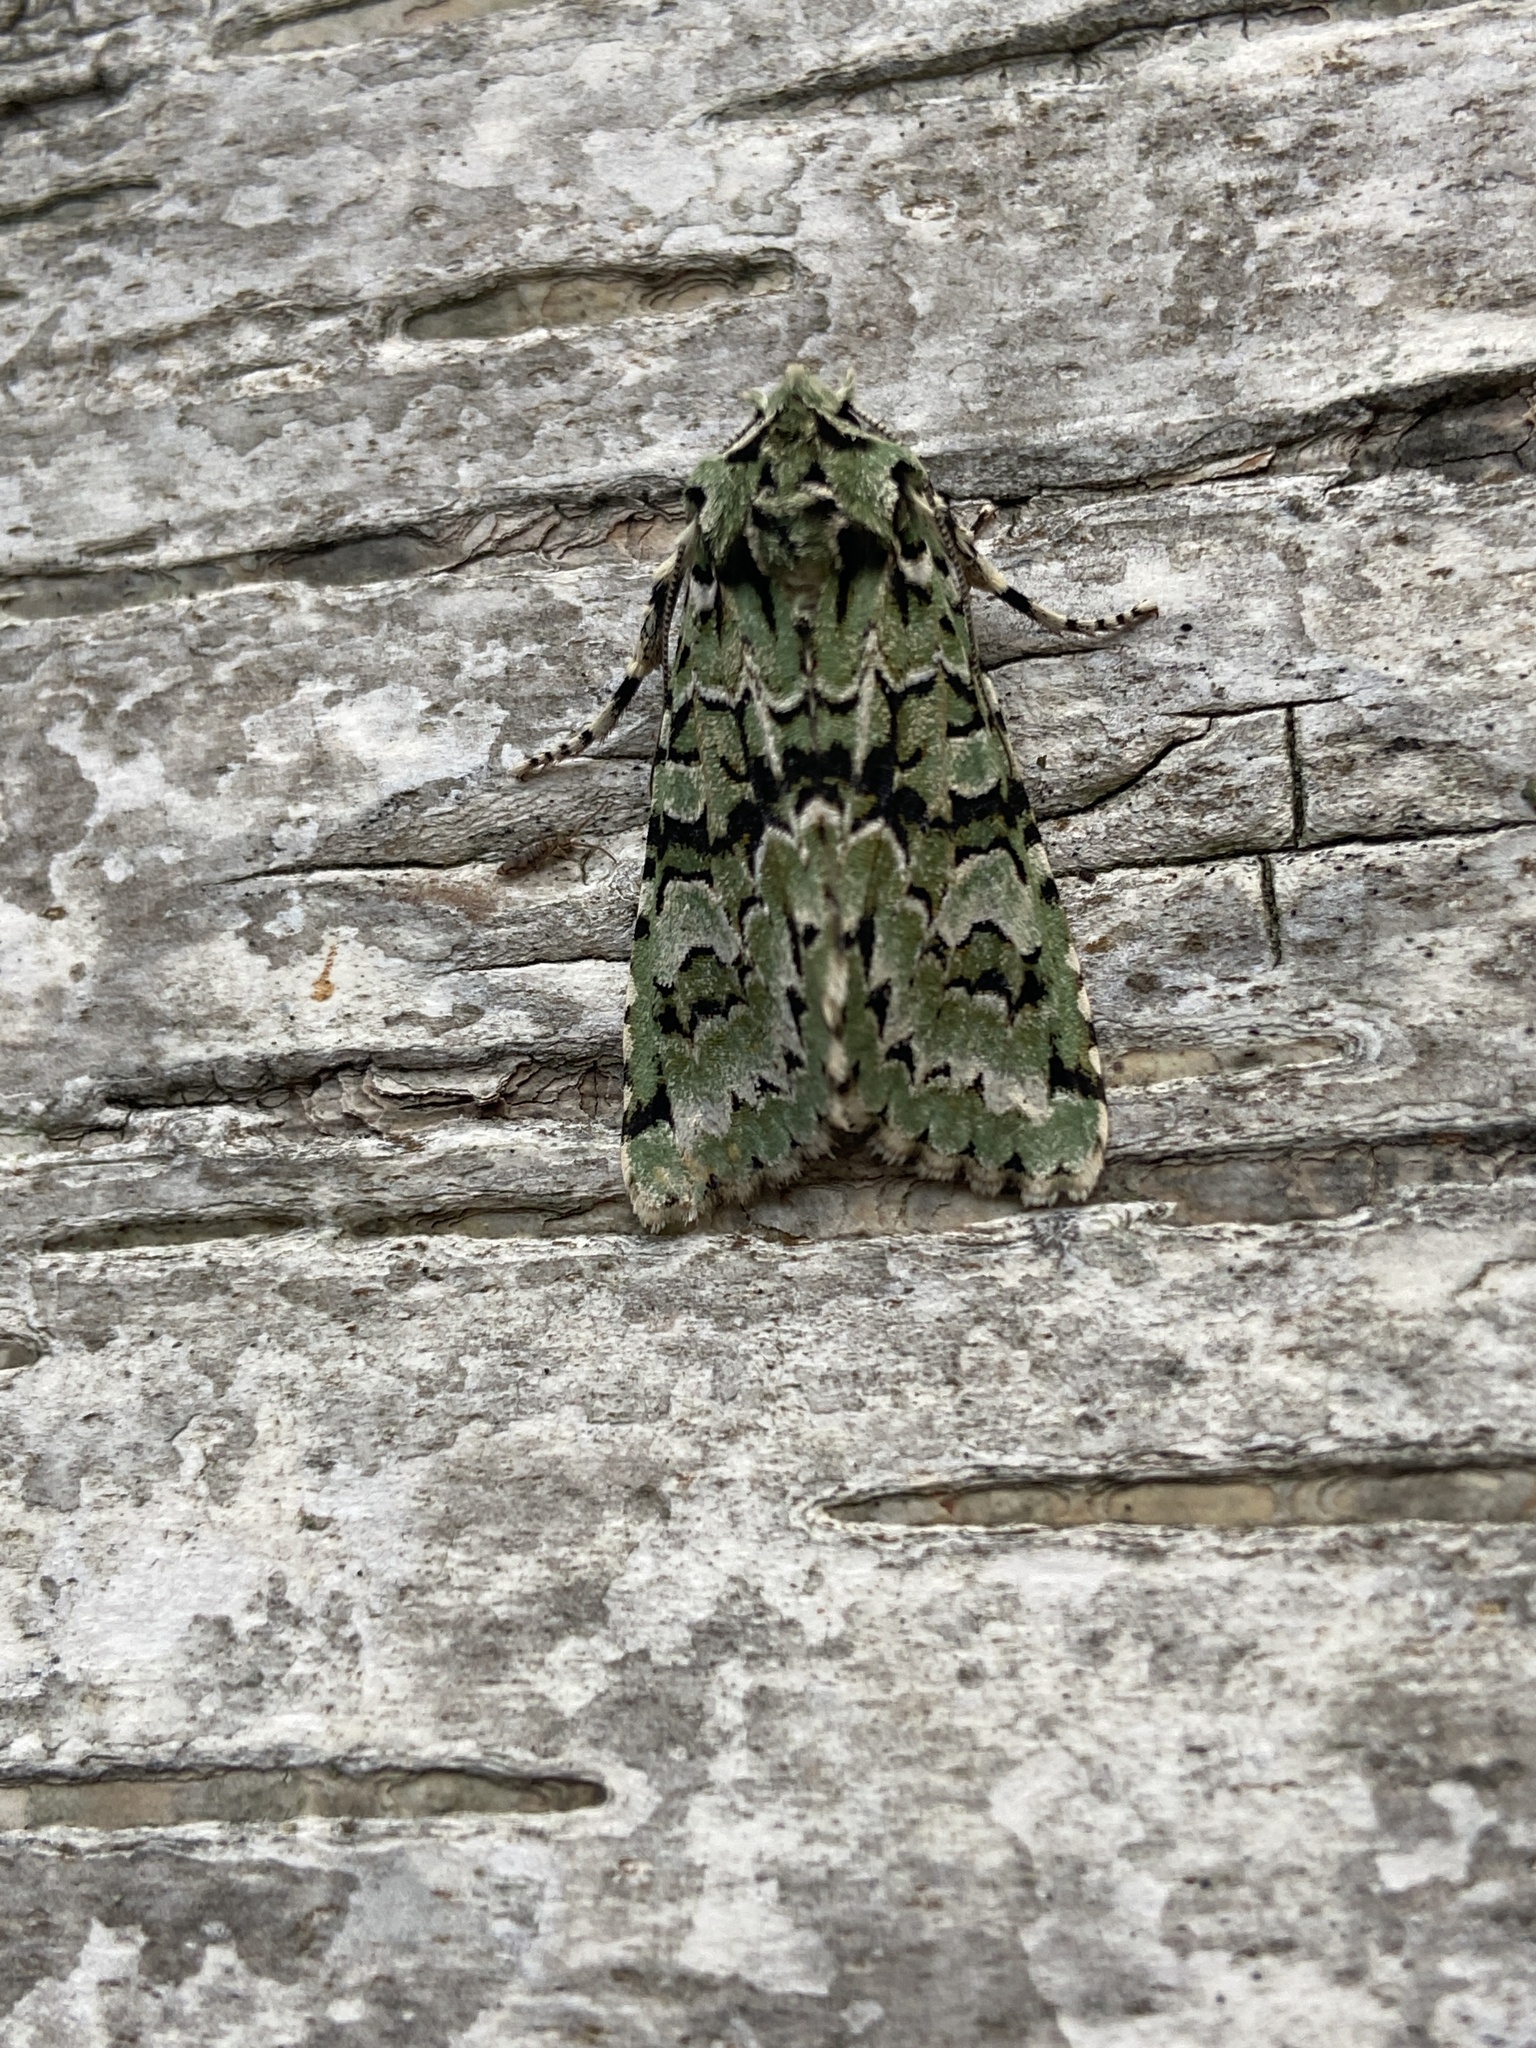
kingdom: Animalia
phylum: Arthropoda
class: Insecta
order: Lepidoptera
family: Noctuidae
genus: Griposia
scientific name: Griposia aprilina
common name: Merveille du jour
